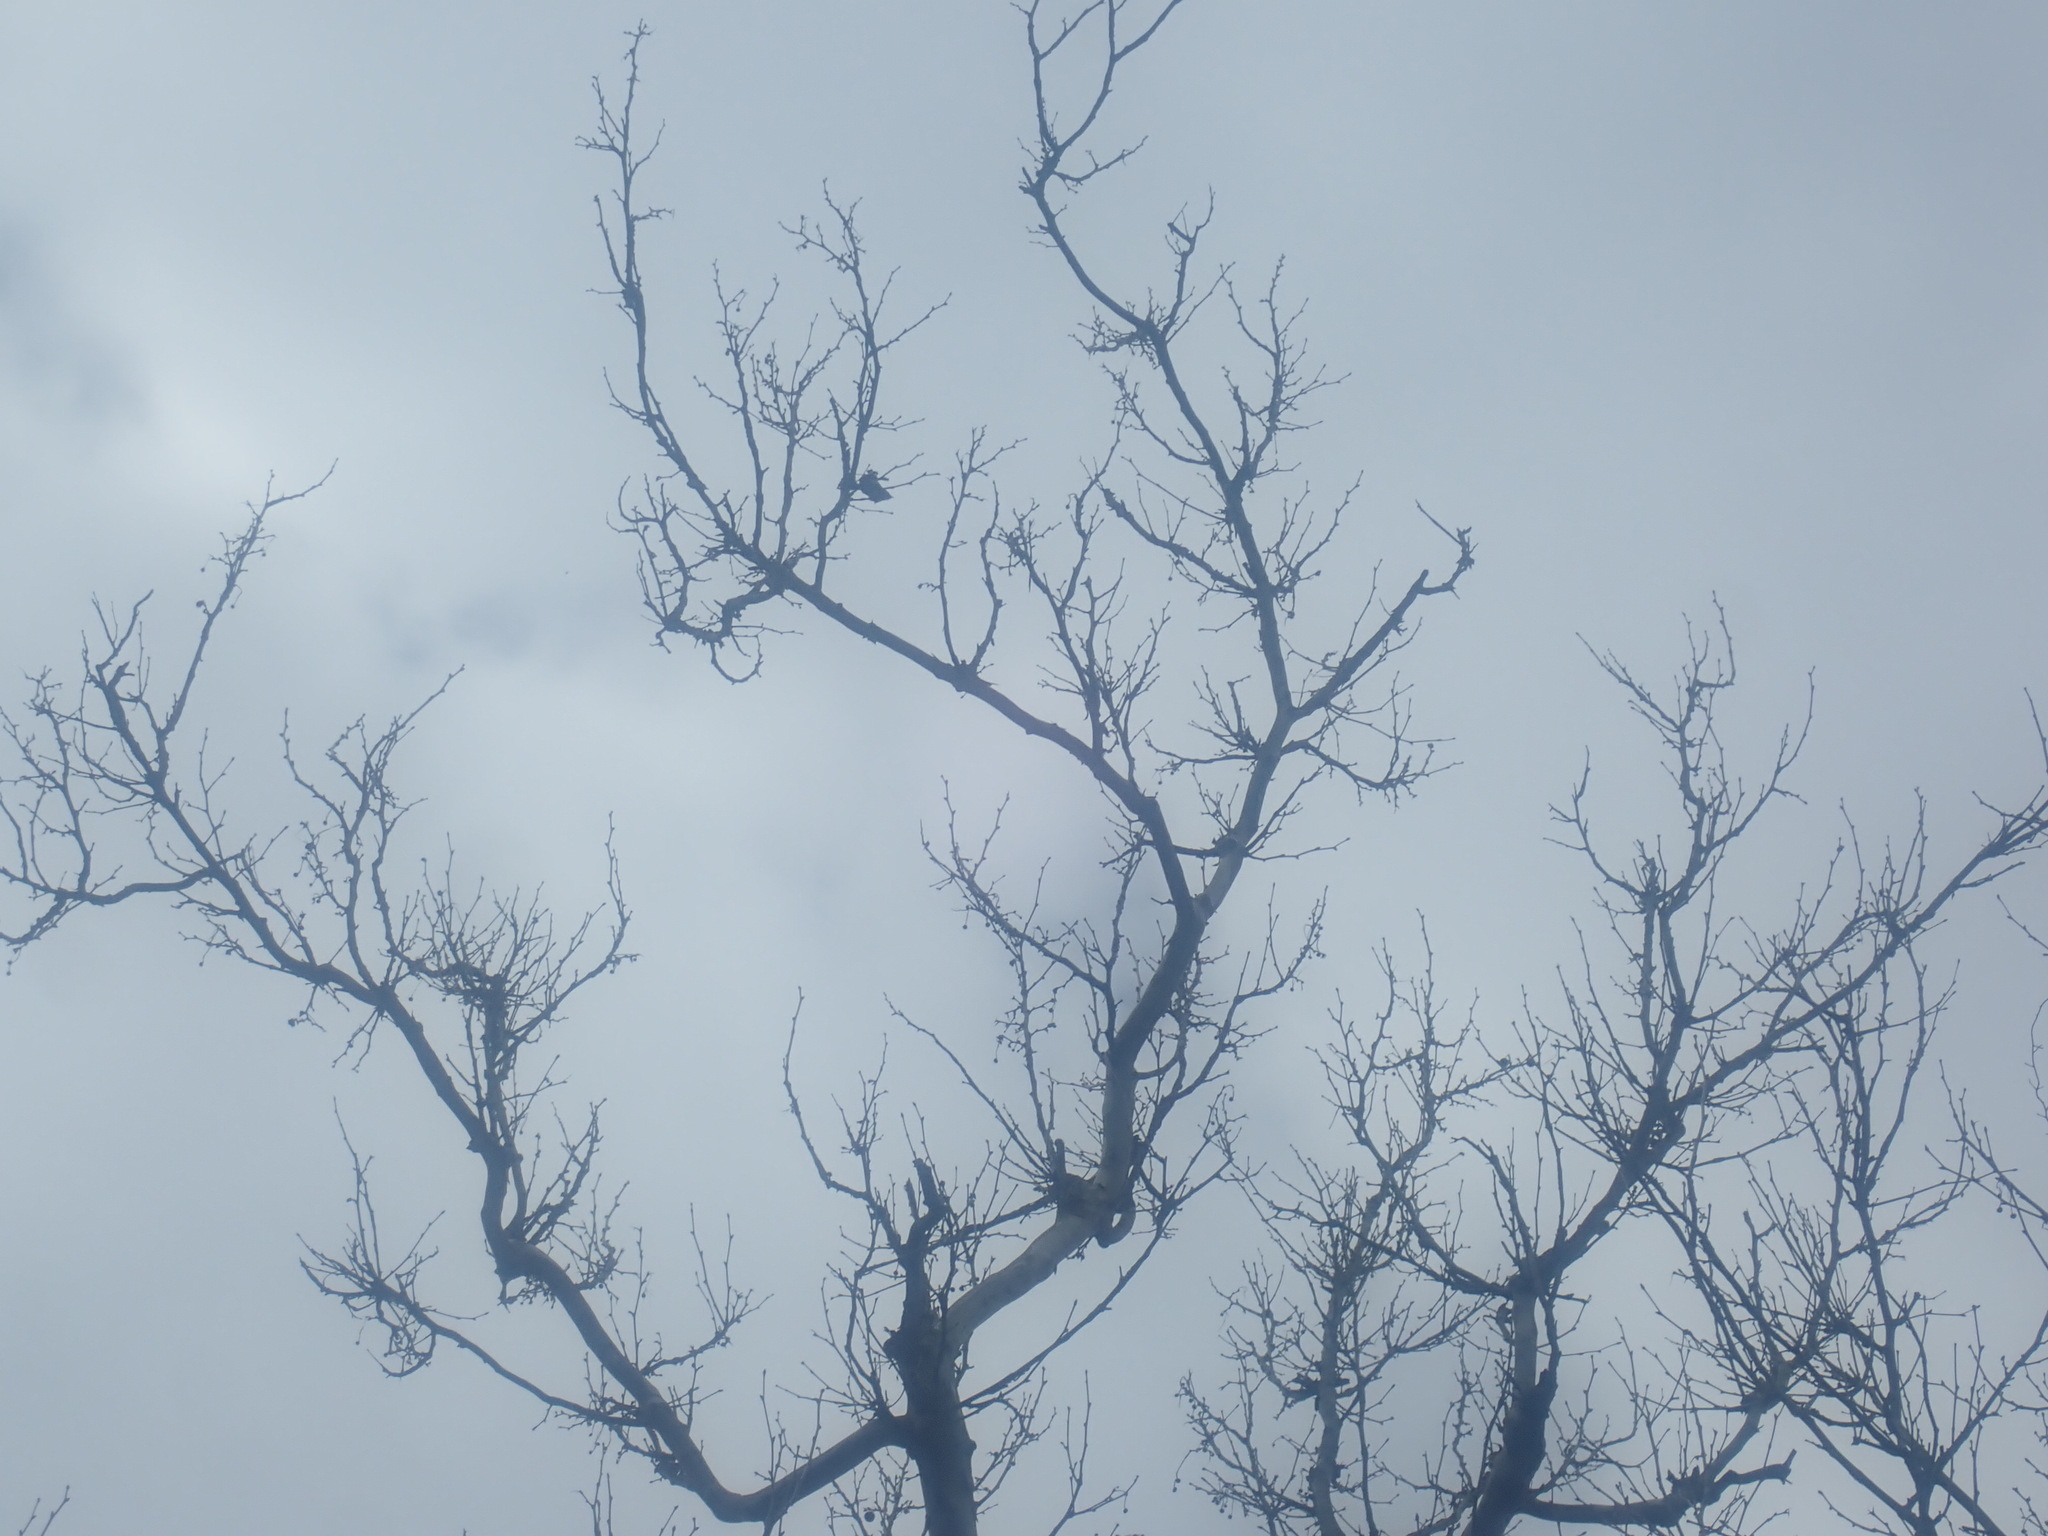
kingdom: Plantae
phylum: Tracheophyta
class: Magnoliopsida
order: Proteales
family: Platanaceae
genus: Platanus
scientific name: Platanus occidentalis
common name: American sycamore
